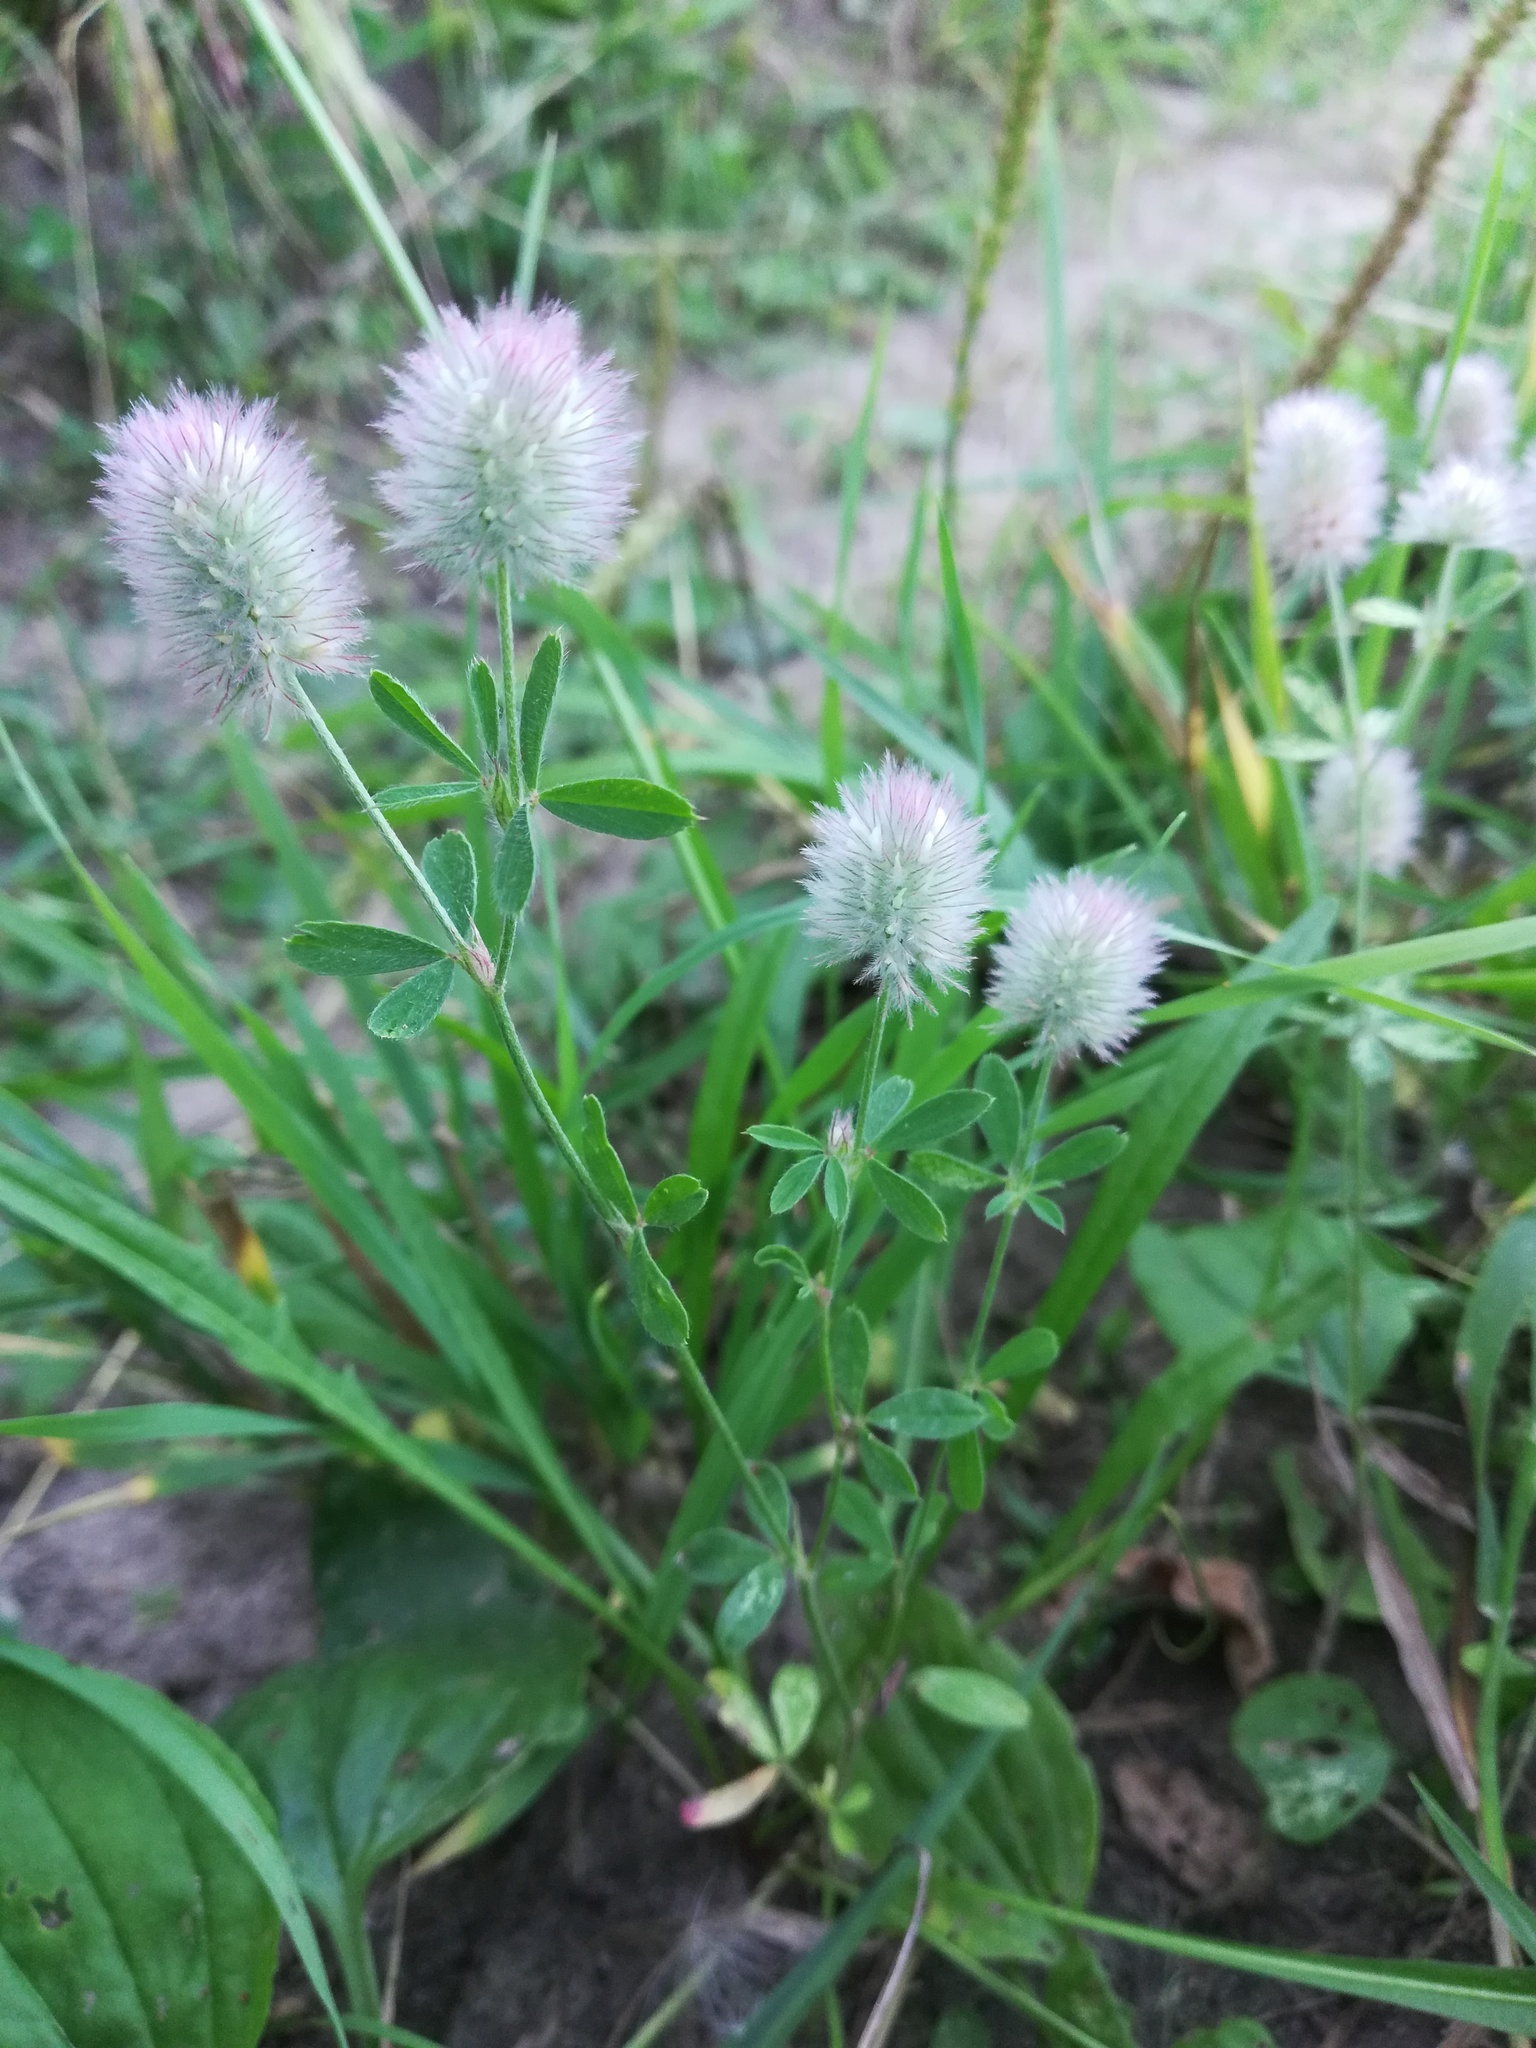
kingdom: Plantae
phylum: Tracheophyta
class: Magnoliopsida
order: Fabales
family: Fabaceae
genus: Trifolium
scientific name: Trifolium arvense
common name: Hare's-foot clover
